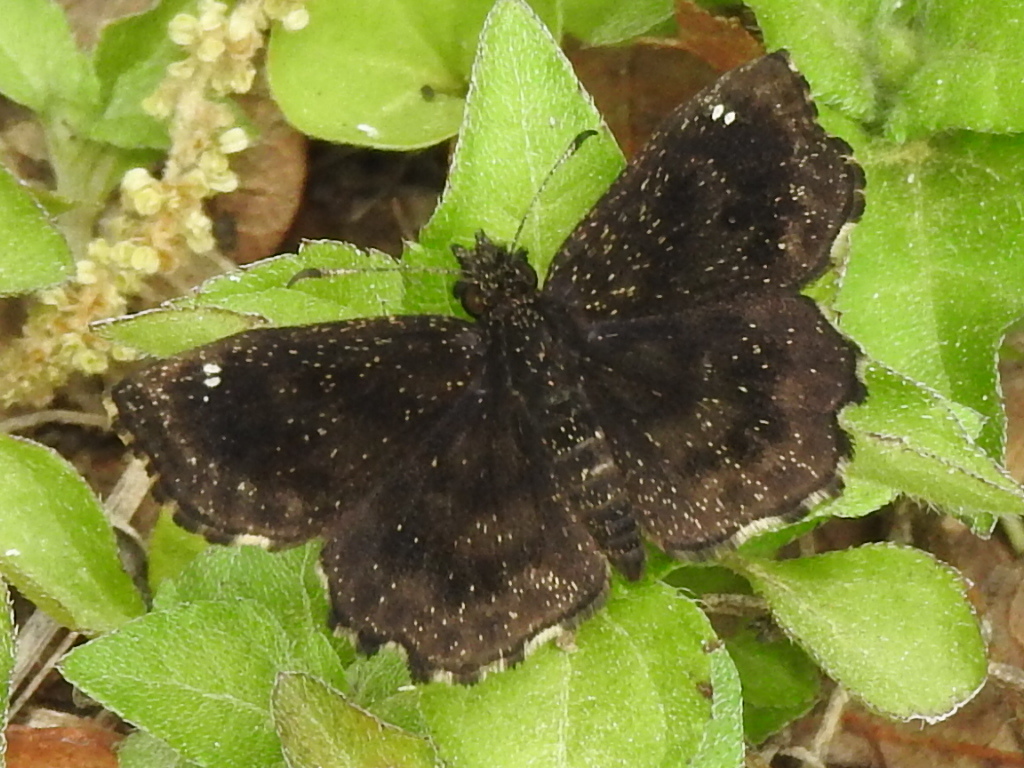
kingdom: Animalia
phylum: Arthropoda
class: Insecta
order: Lepidoptera
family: Hesperiidae
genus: Staphylus
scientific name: Staphylus mazans
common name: Mazans scallopwing
